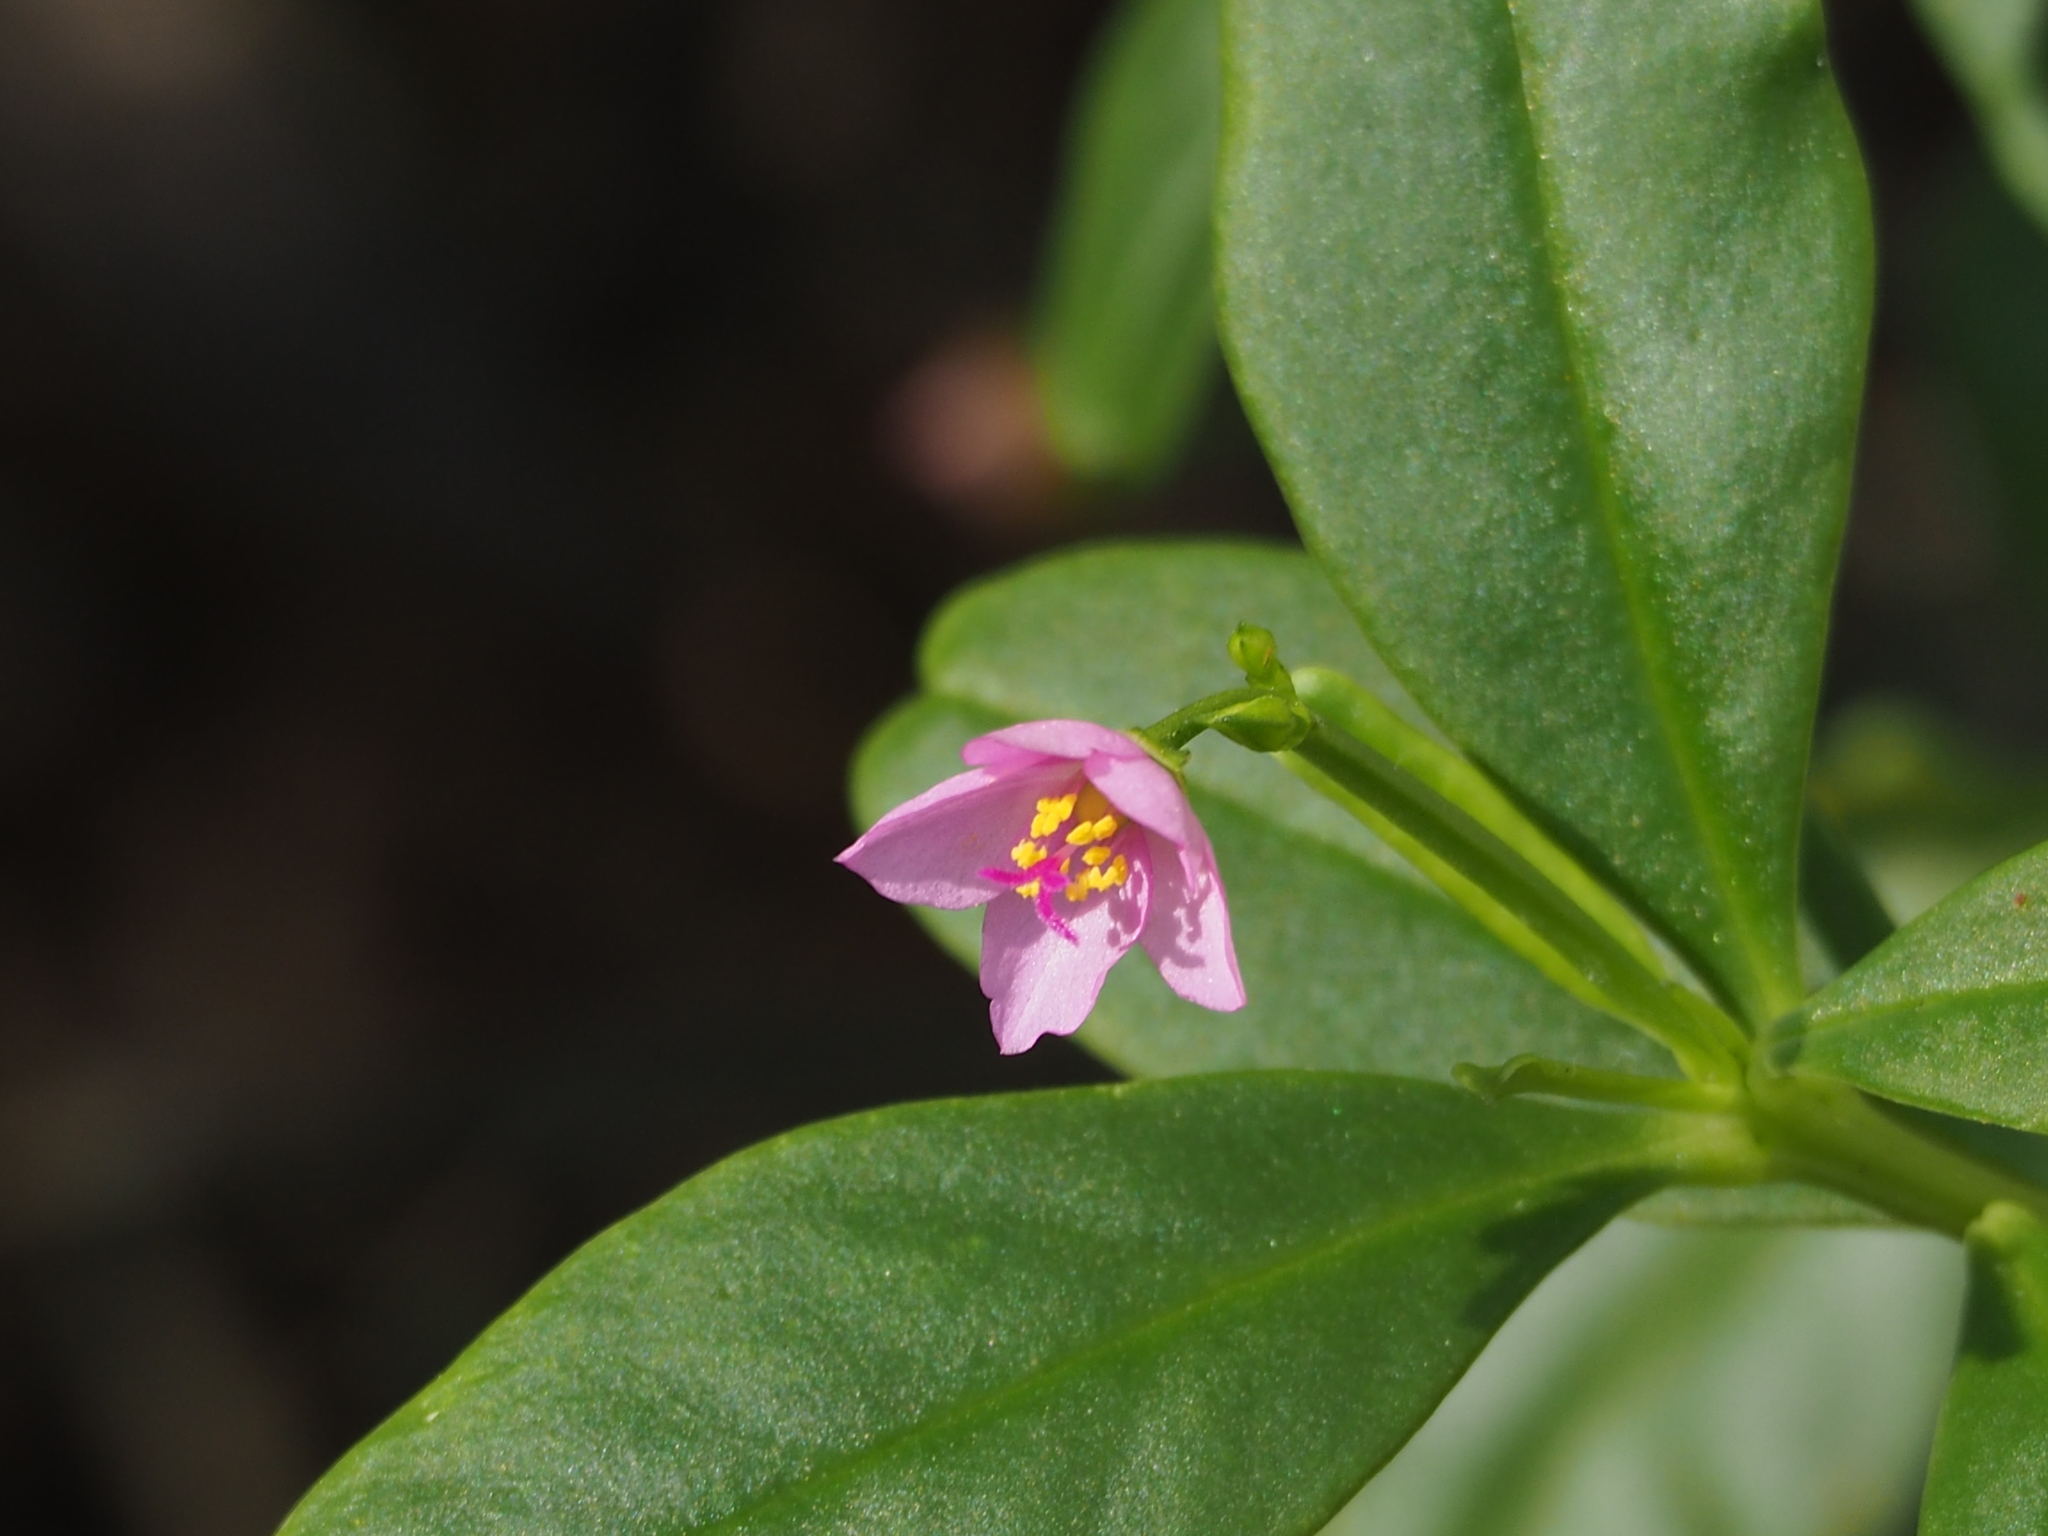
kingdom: Plantae
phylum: Tracheophyta
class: Magnoliopsida
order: Caryophyllales
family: Talinaceae
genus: Talinum
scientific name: Talinum fruticosum
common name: Verdolaga-francesa
